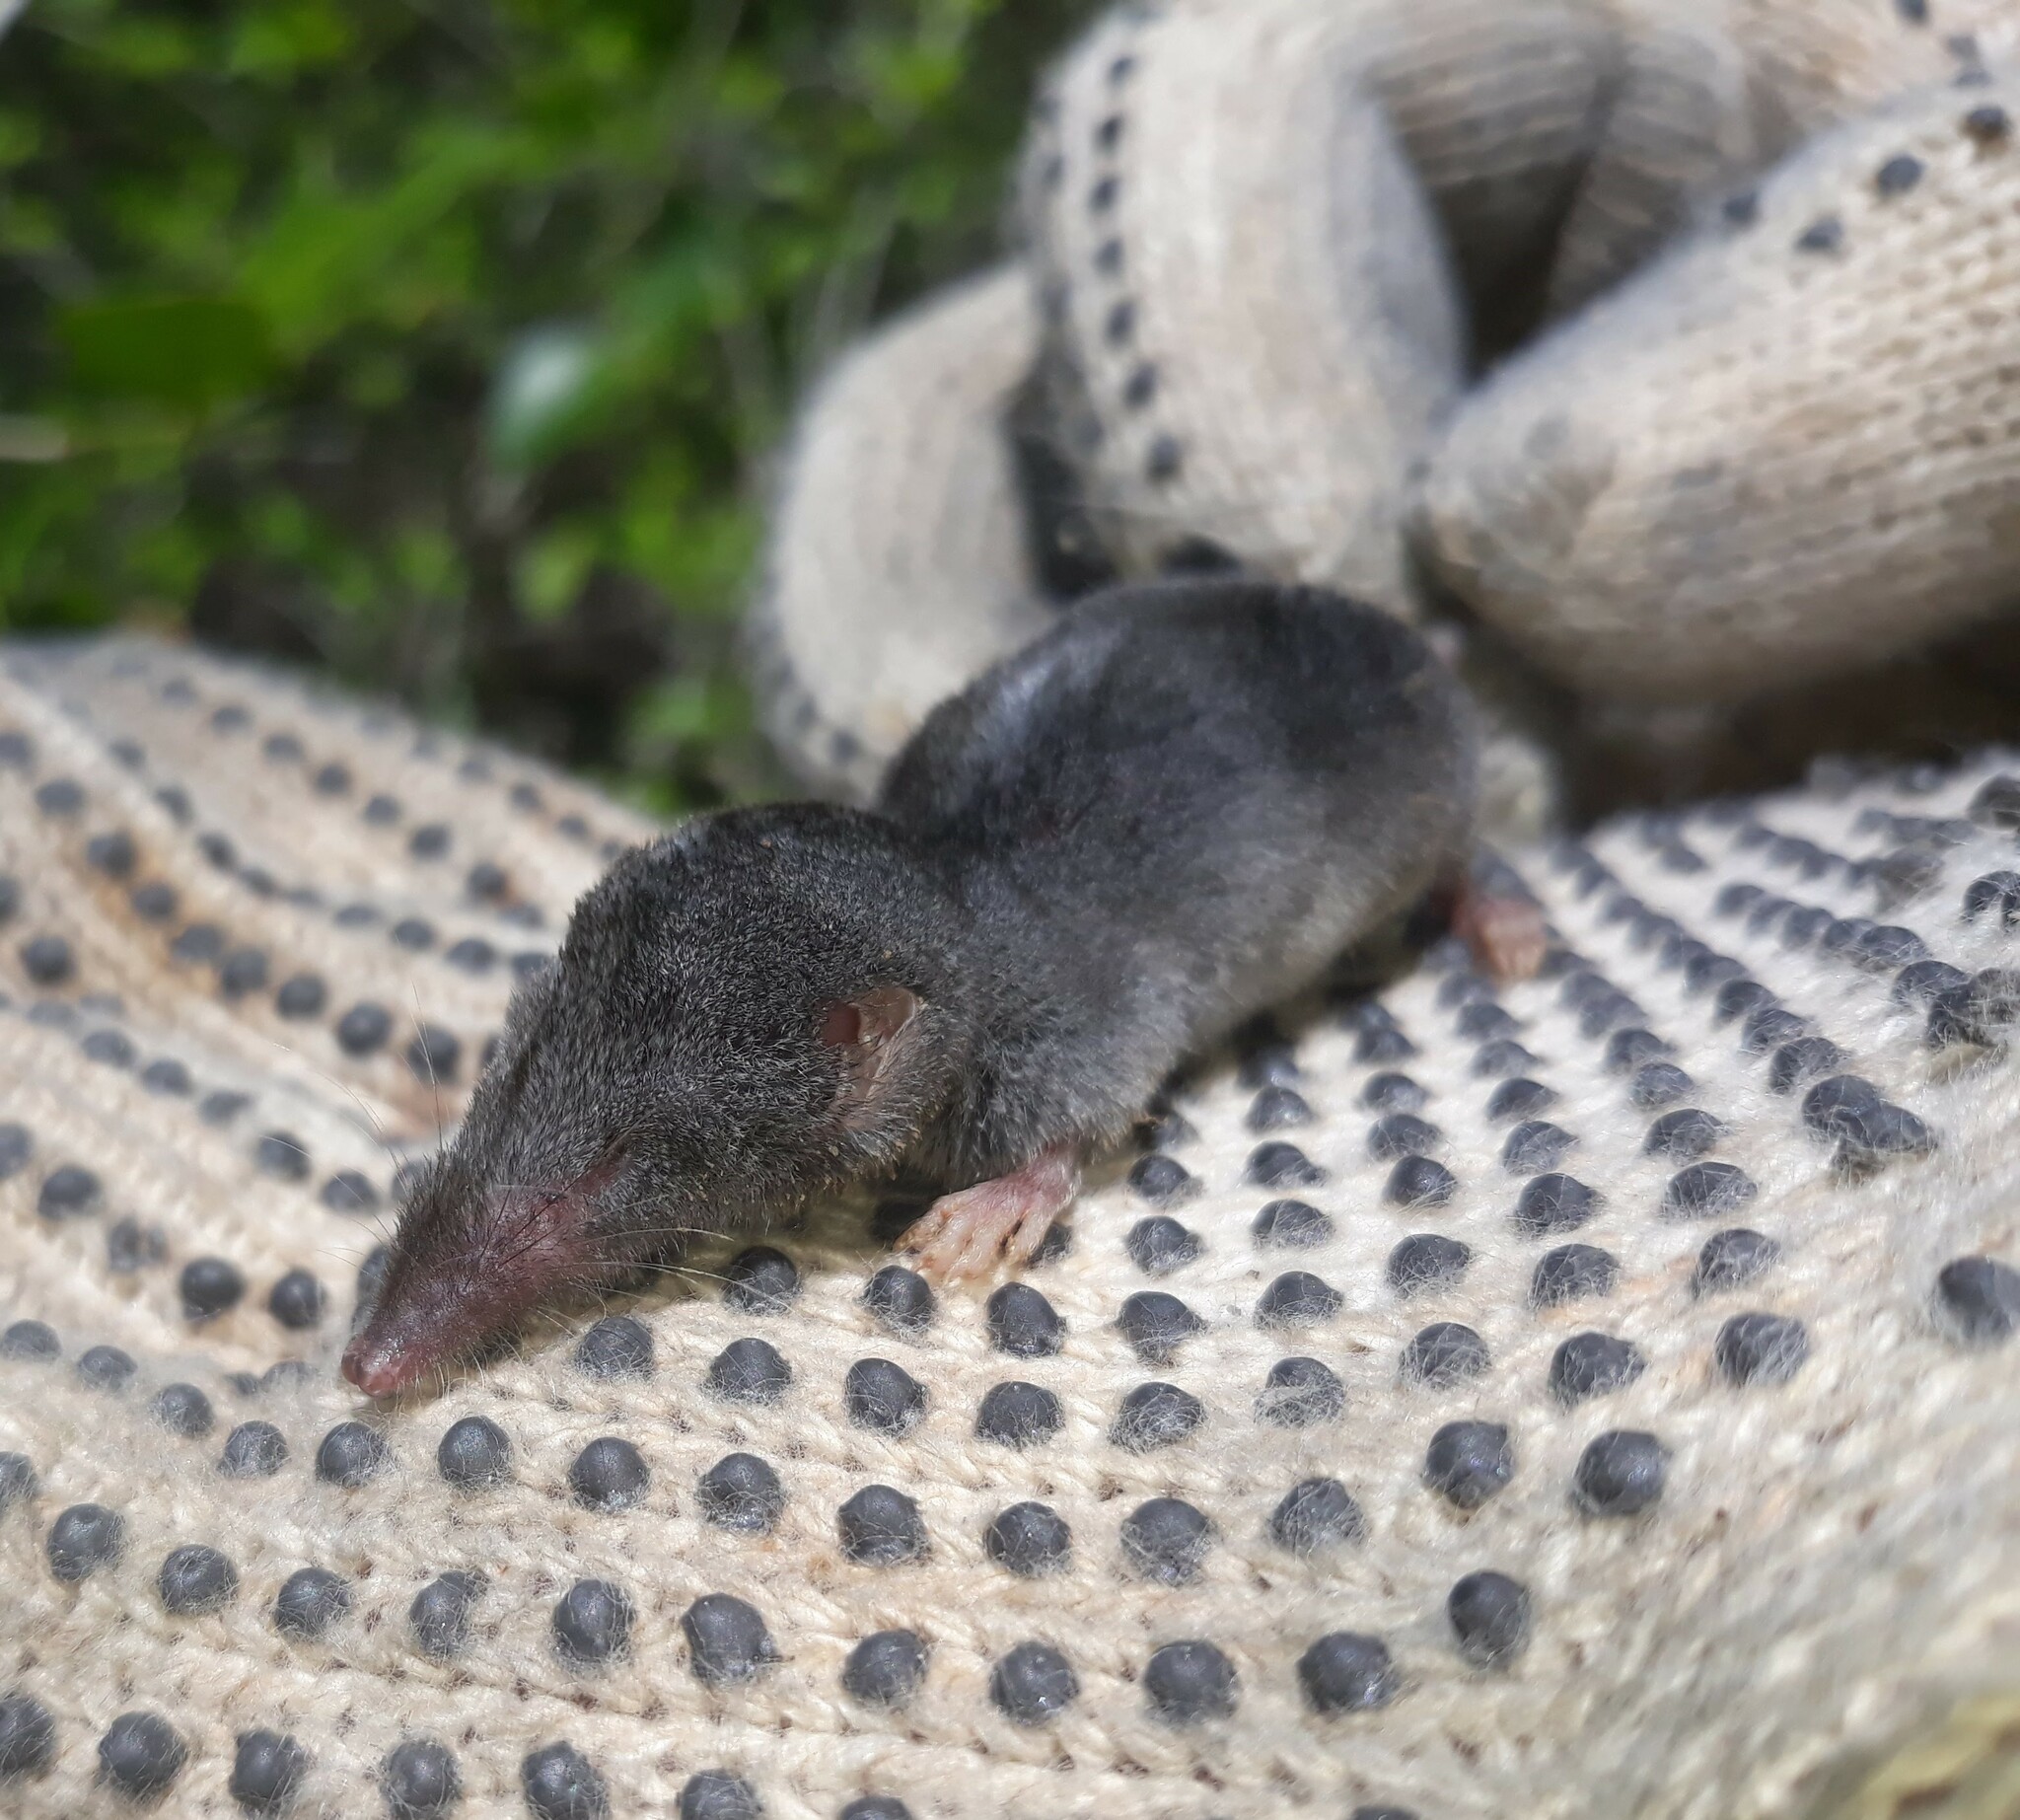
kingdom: Animalia
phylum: Chordata
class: Mammalia
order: Soricomorpha
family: Soricidae
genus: Cryptotis
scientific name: Cryptotis mayensis
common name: Yucatan small-eared shrew
